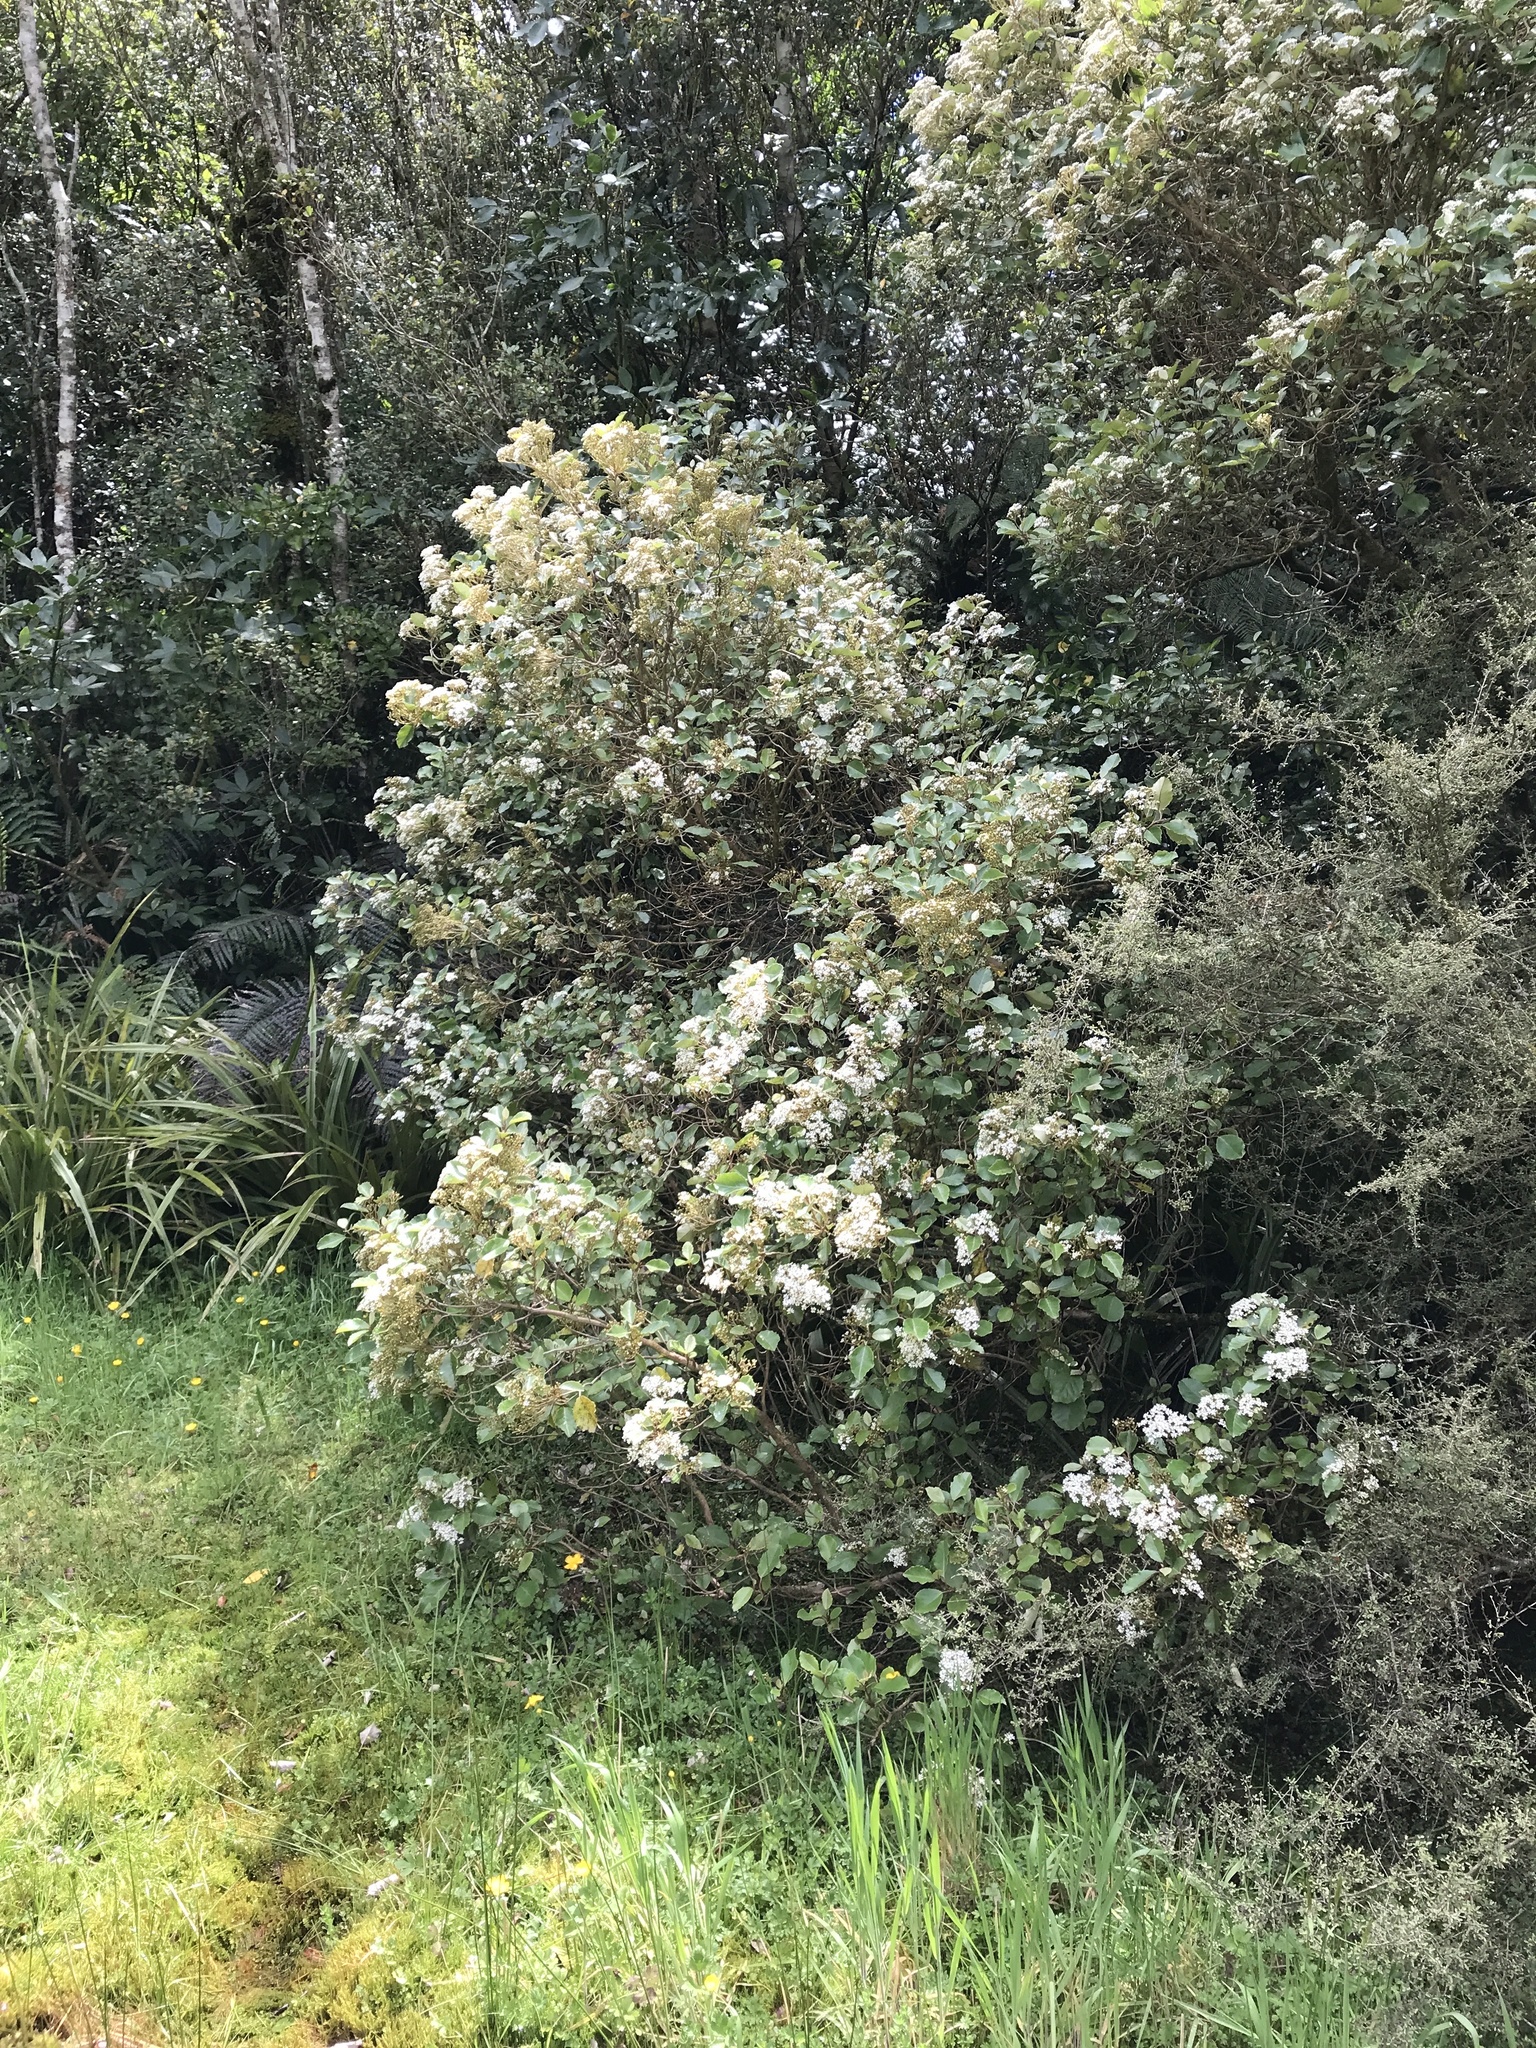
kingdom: Plantae
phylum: Tracheophyta
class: Magnoliopsida
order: Asterales
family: Asteraceae
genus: Olearia
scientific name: Olearia arborescens
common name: Glossy tree daisy
